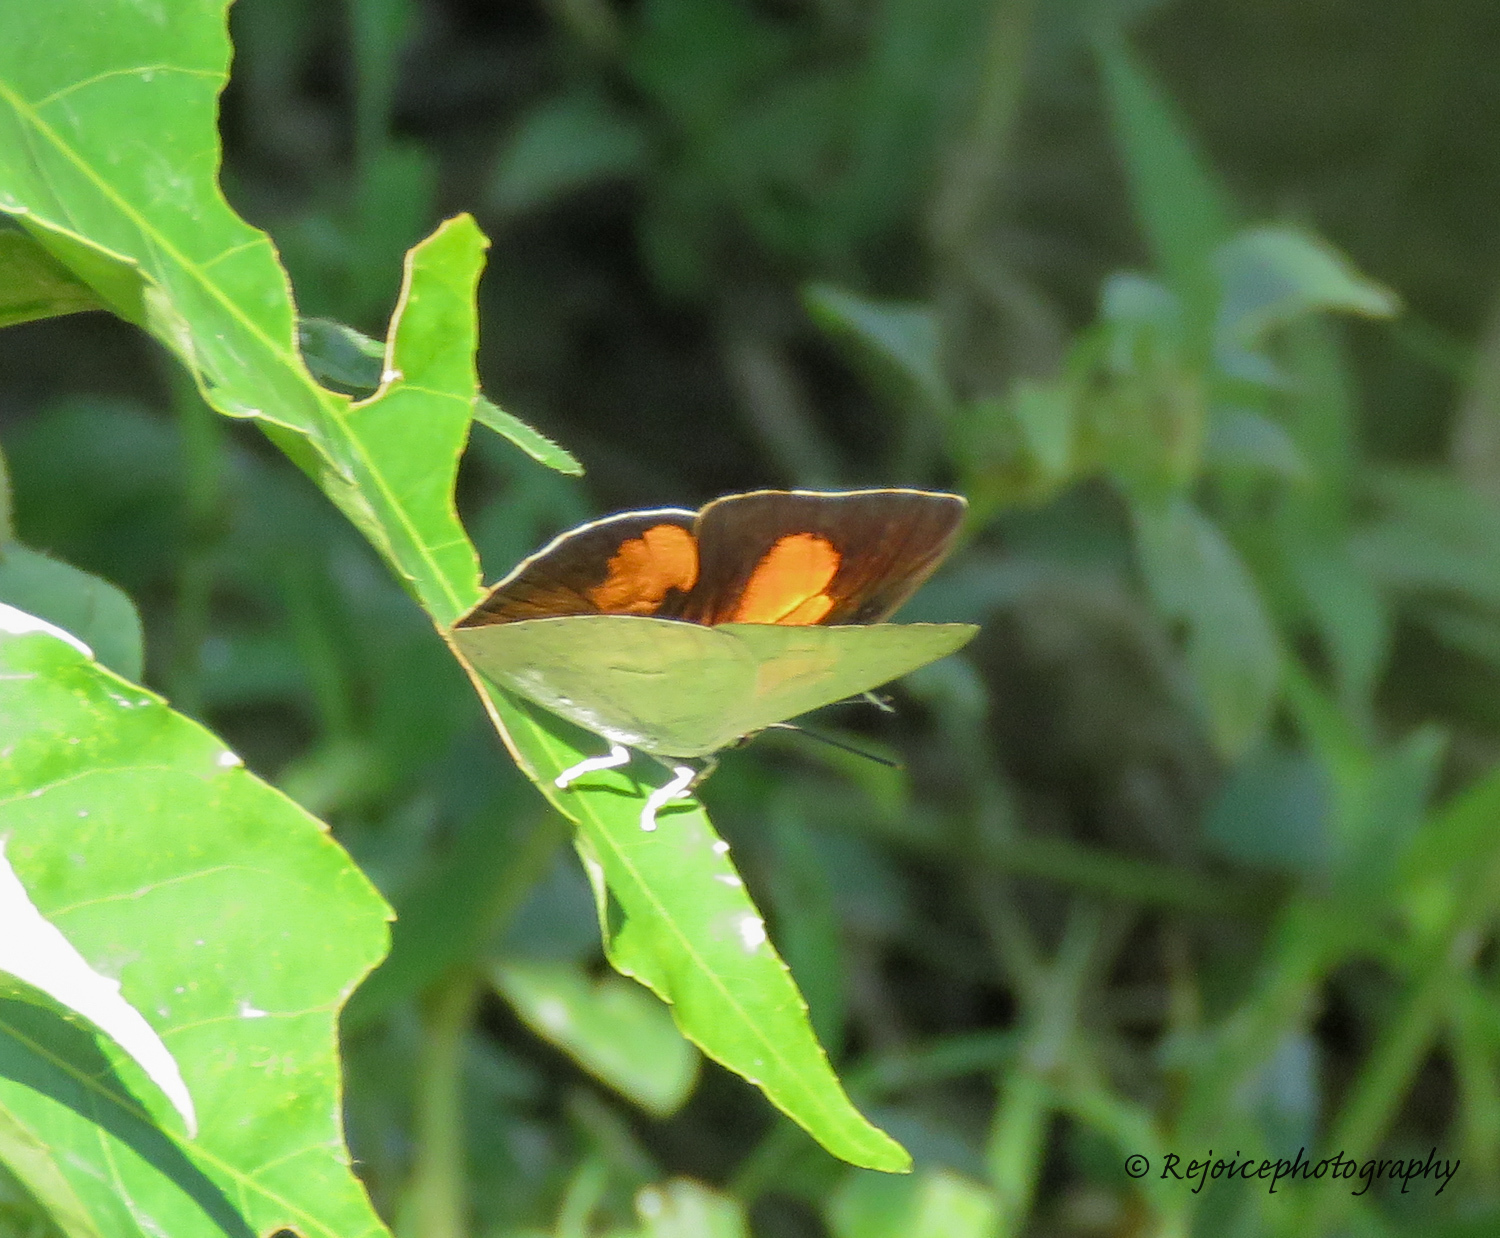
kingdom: Animalia
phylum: Arthropoda
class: Insecta
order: Lepidoptera
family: Lycaenidae
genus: Curetis
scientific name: Curetis bulis
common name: Bright sunbeam
